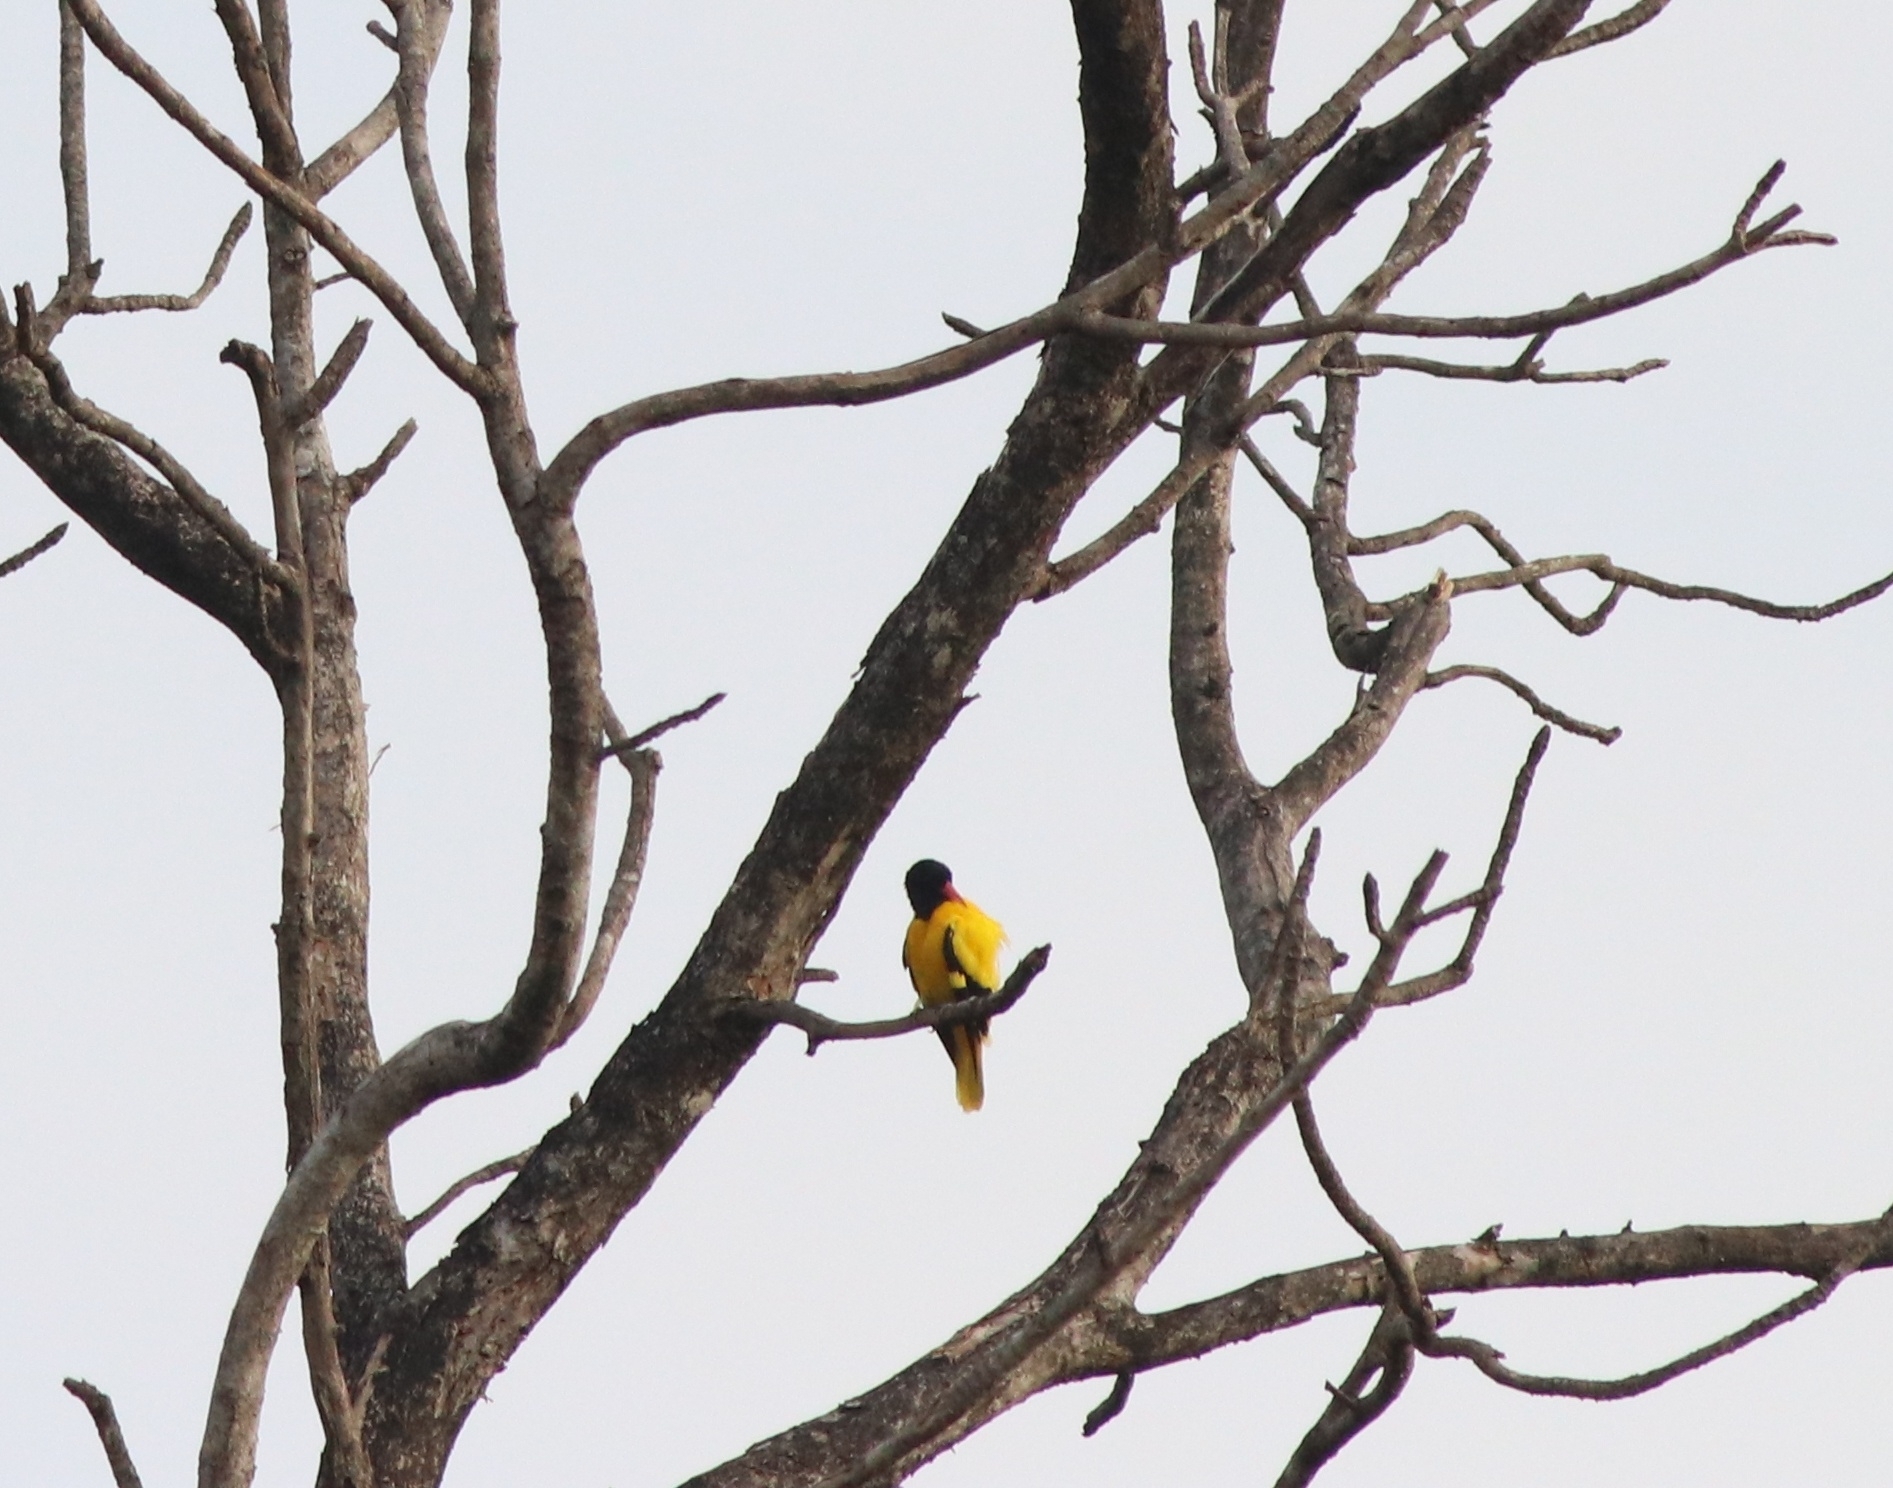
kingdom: Animalia
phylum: Chordata
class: Aves
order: Passeriformes
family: Oriolidae
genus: Oriolus
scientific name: Oriolus xanthornus
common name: Black-hooded oriole
